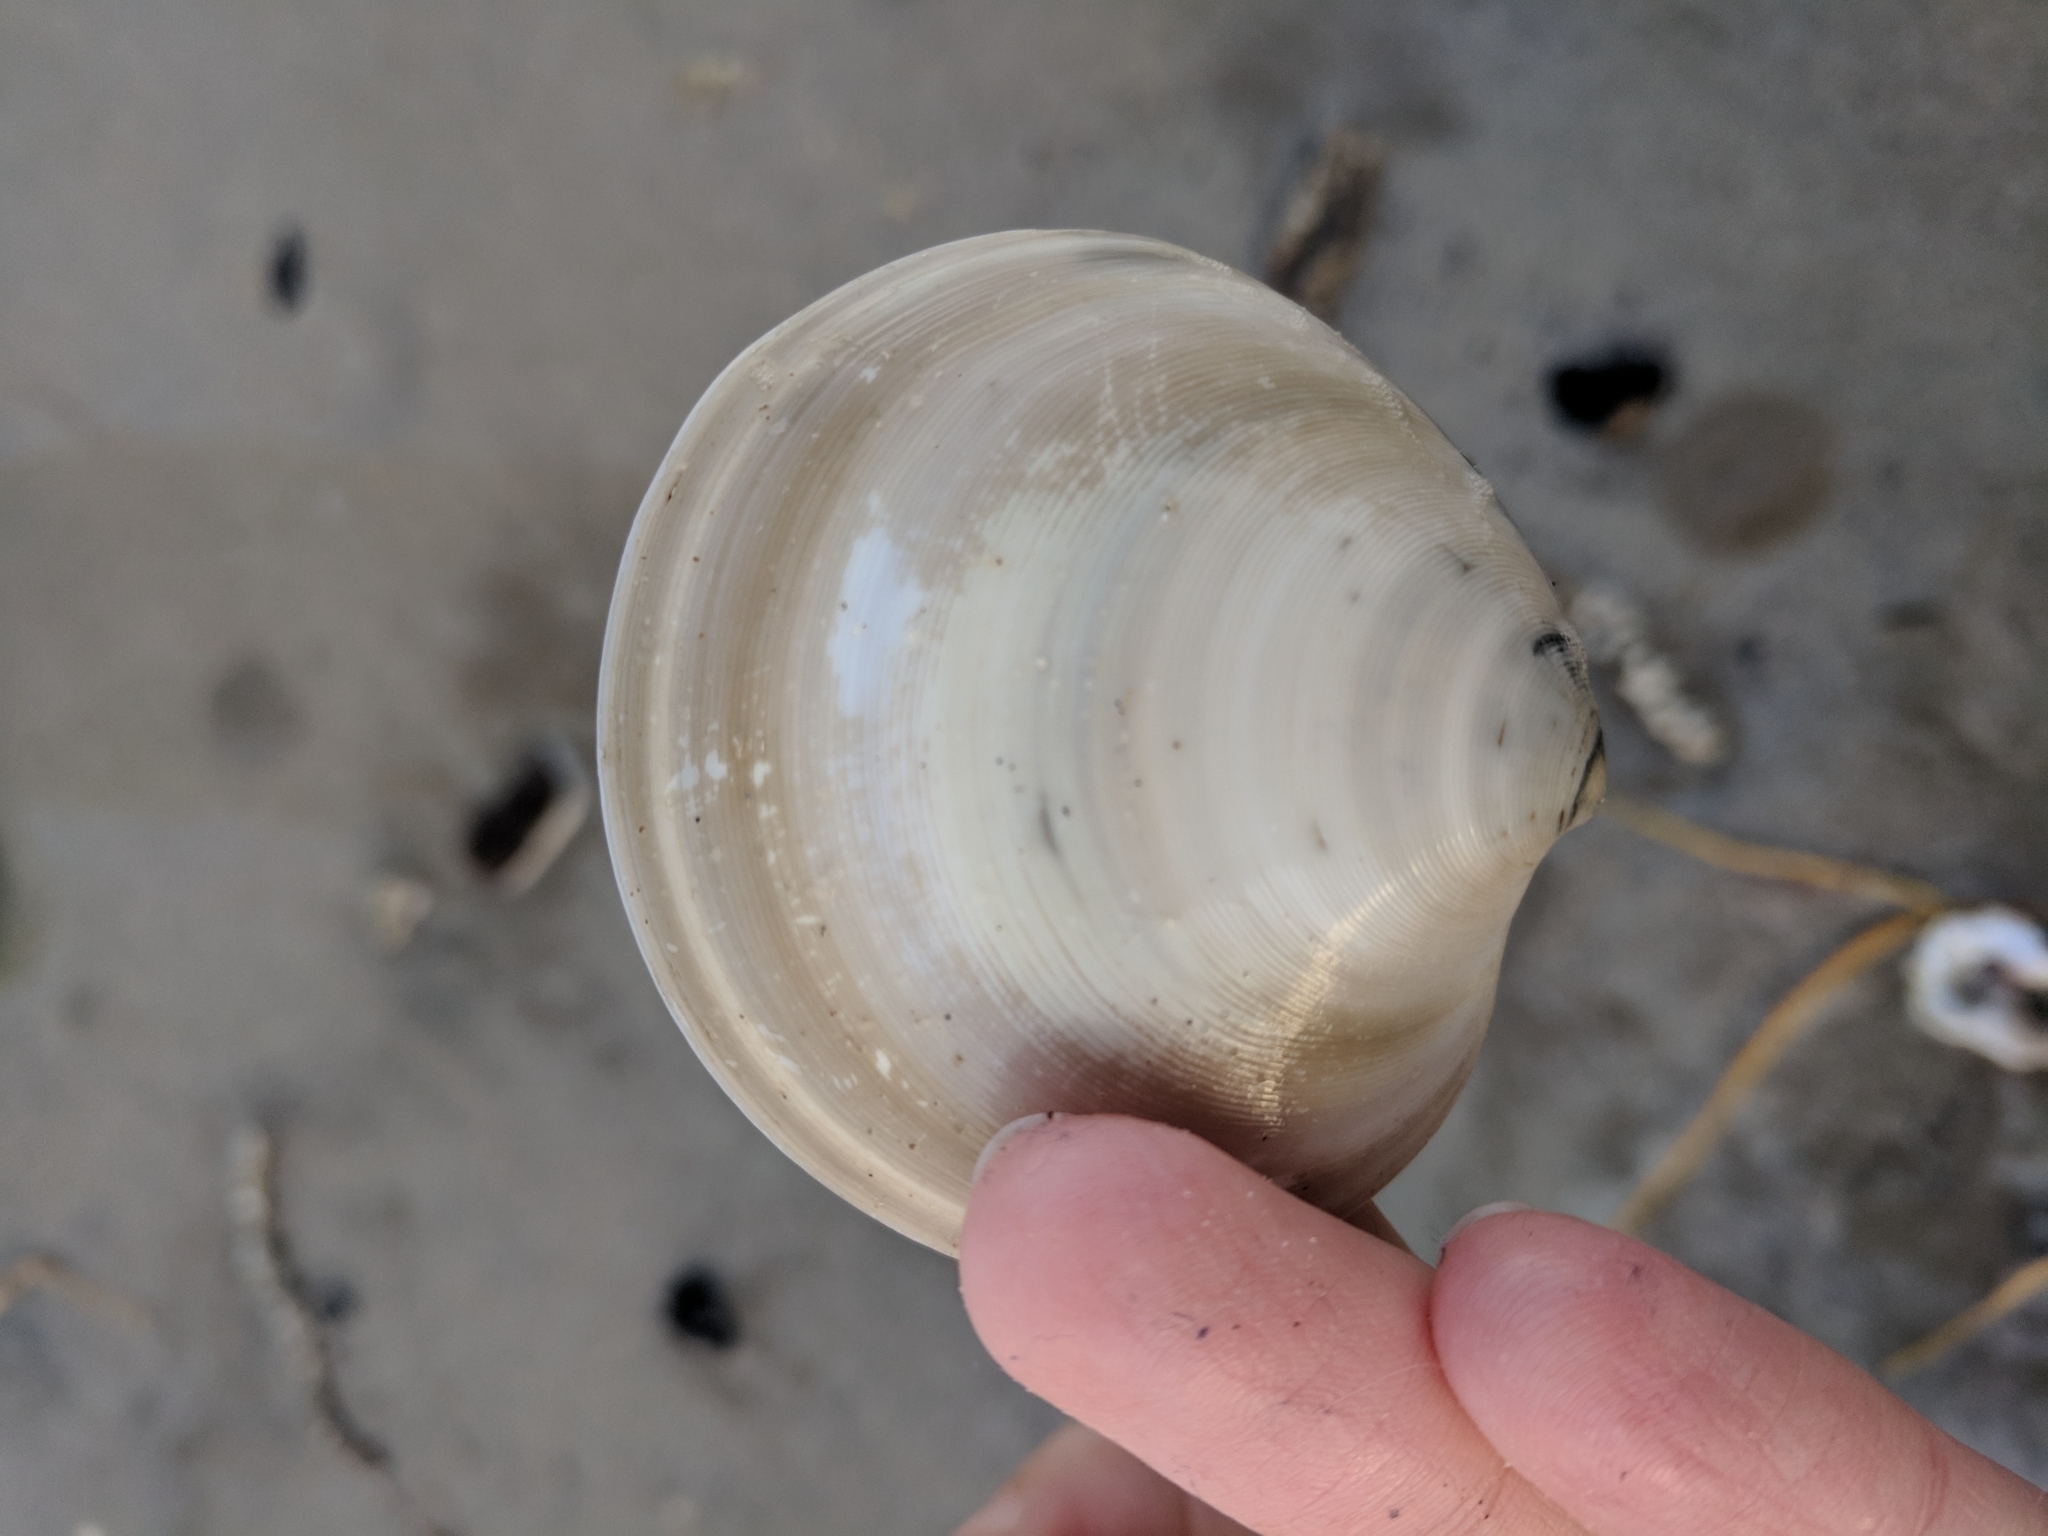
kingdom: Animalia
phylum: Mollusca
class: Bivalvia
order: Venerida
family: Veneridae
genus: Dosinia
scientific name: Dosinia discus
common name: Disk dosinia
